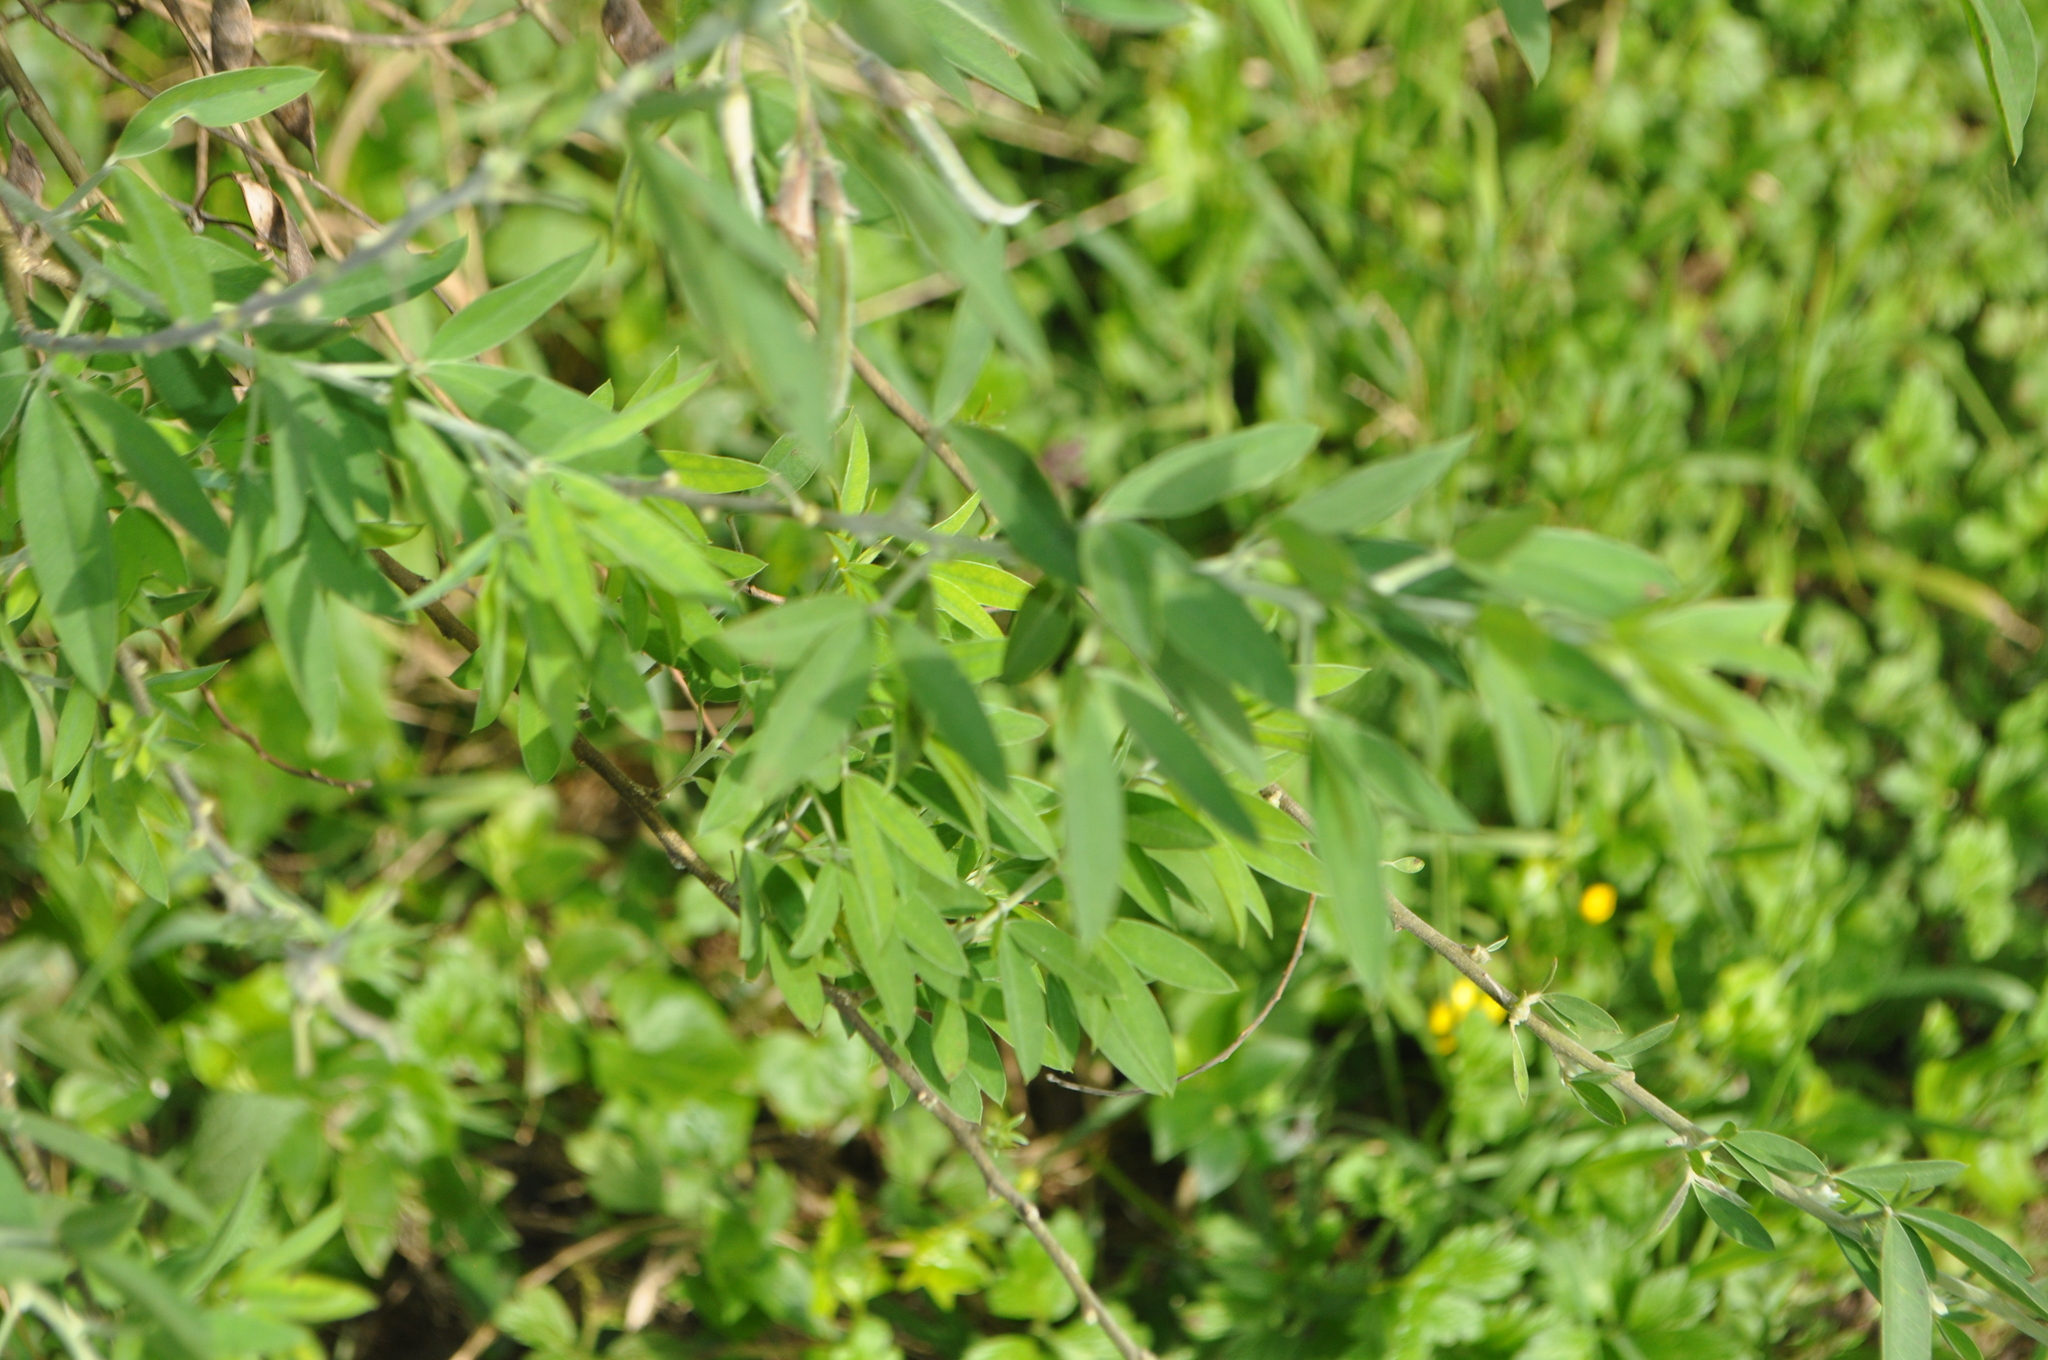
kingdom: Plantae
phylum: Tracheophyta
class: Magnoliopsida
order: Fabales
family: Fabaceae
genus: Chamaecytisus
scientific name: Chamaecytisus prolifer
